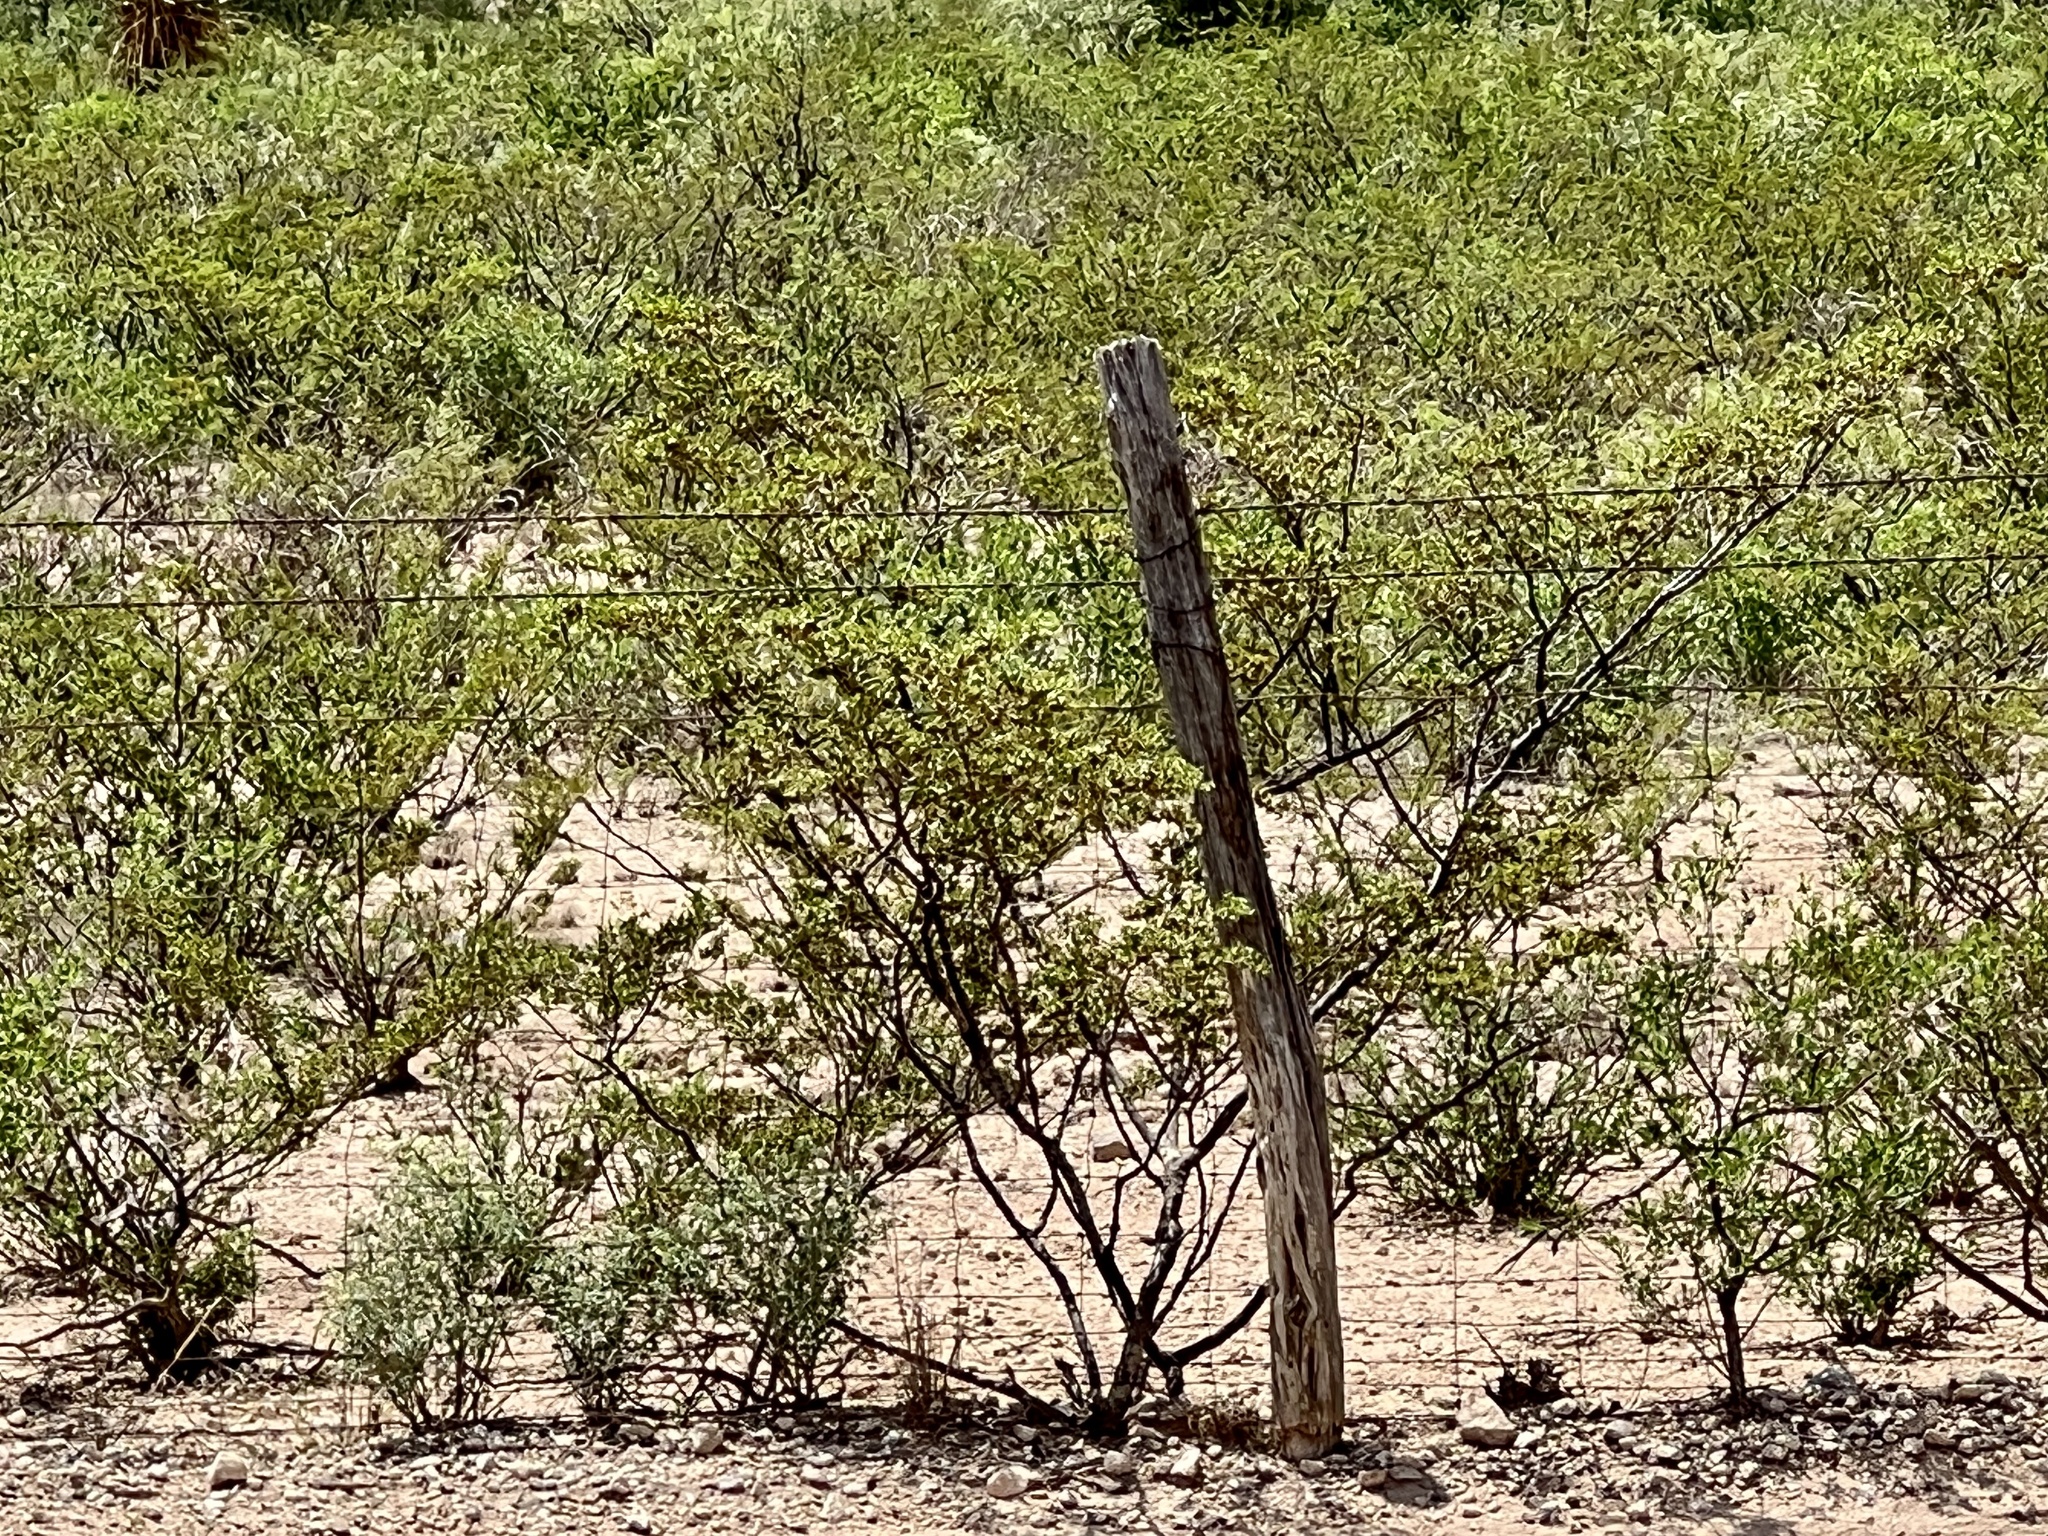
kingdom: Plantae
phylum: Tracheophyta
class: Magnoliopsida
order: Zygophyllales
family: Zygophyllaceae
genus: Larrea
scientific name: Larrea tridentata
